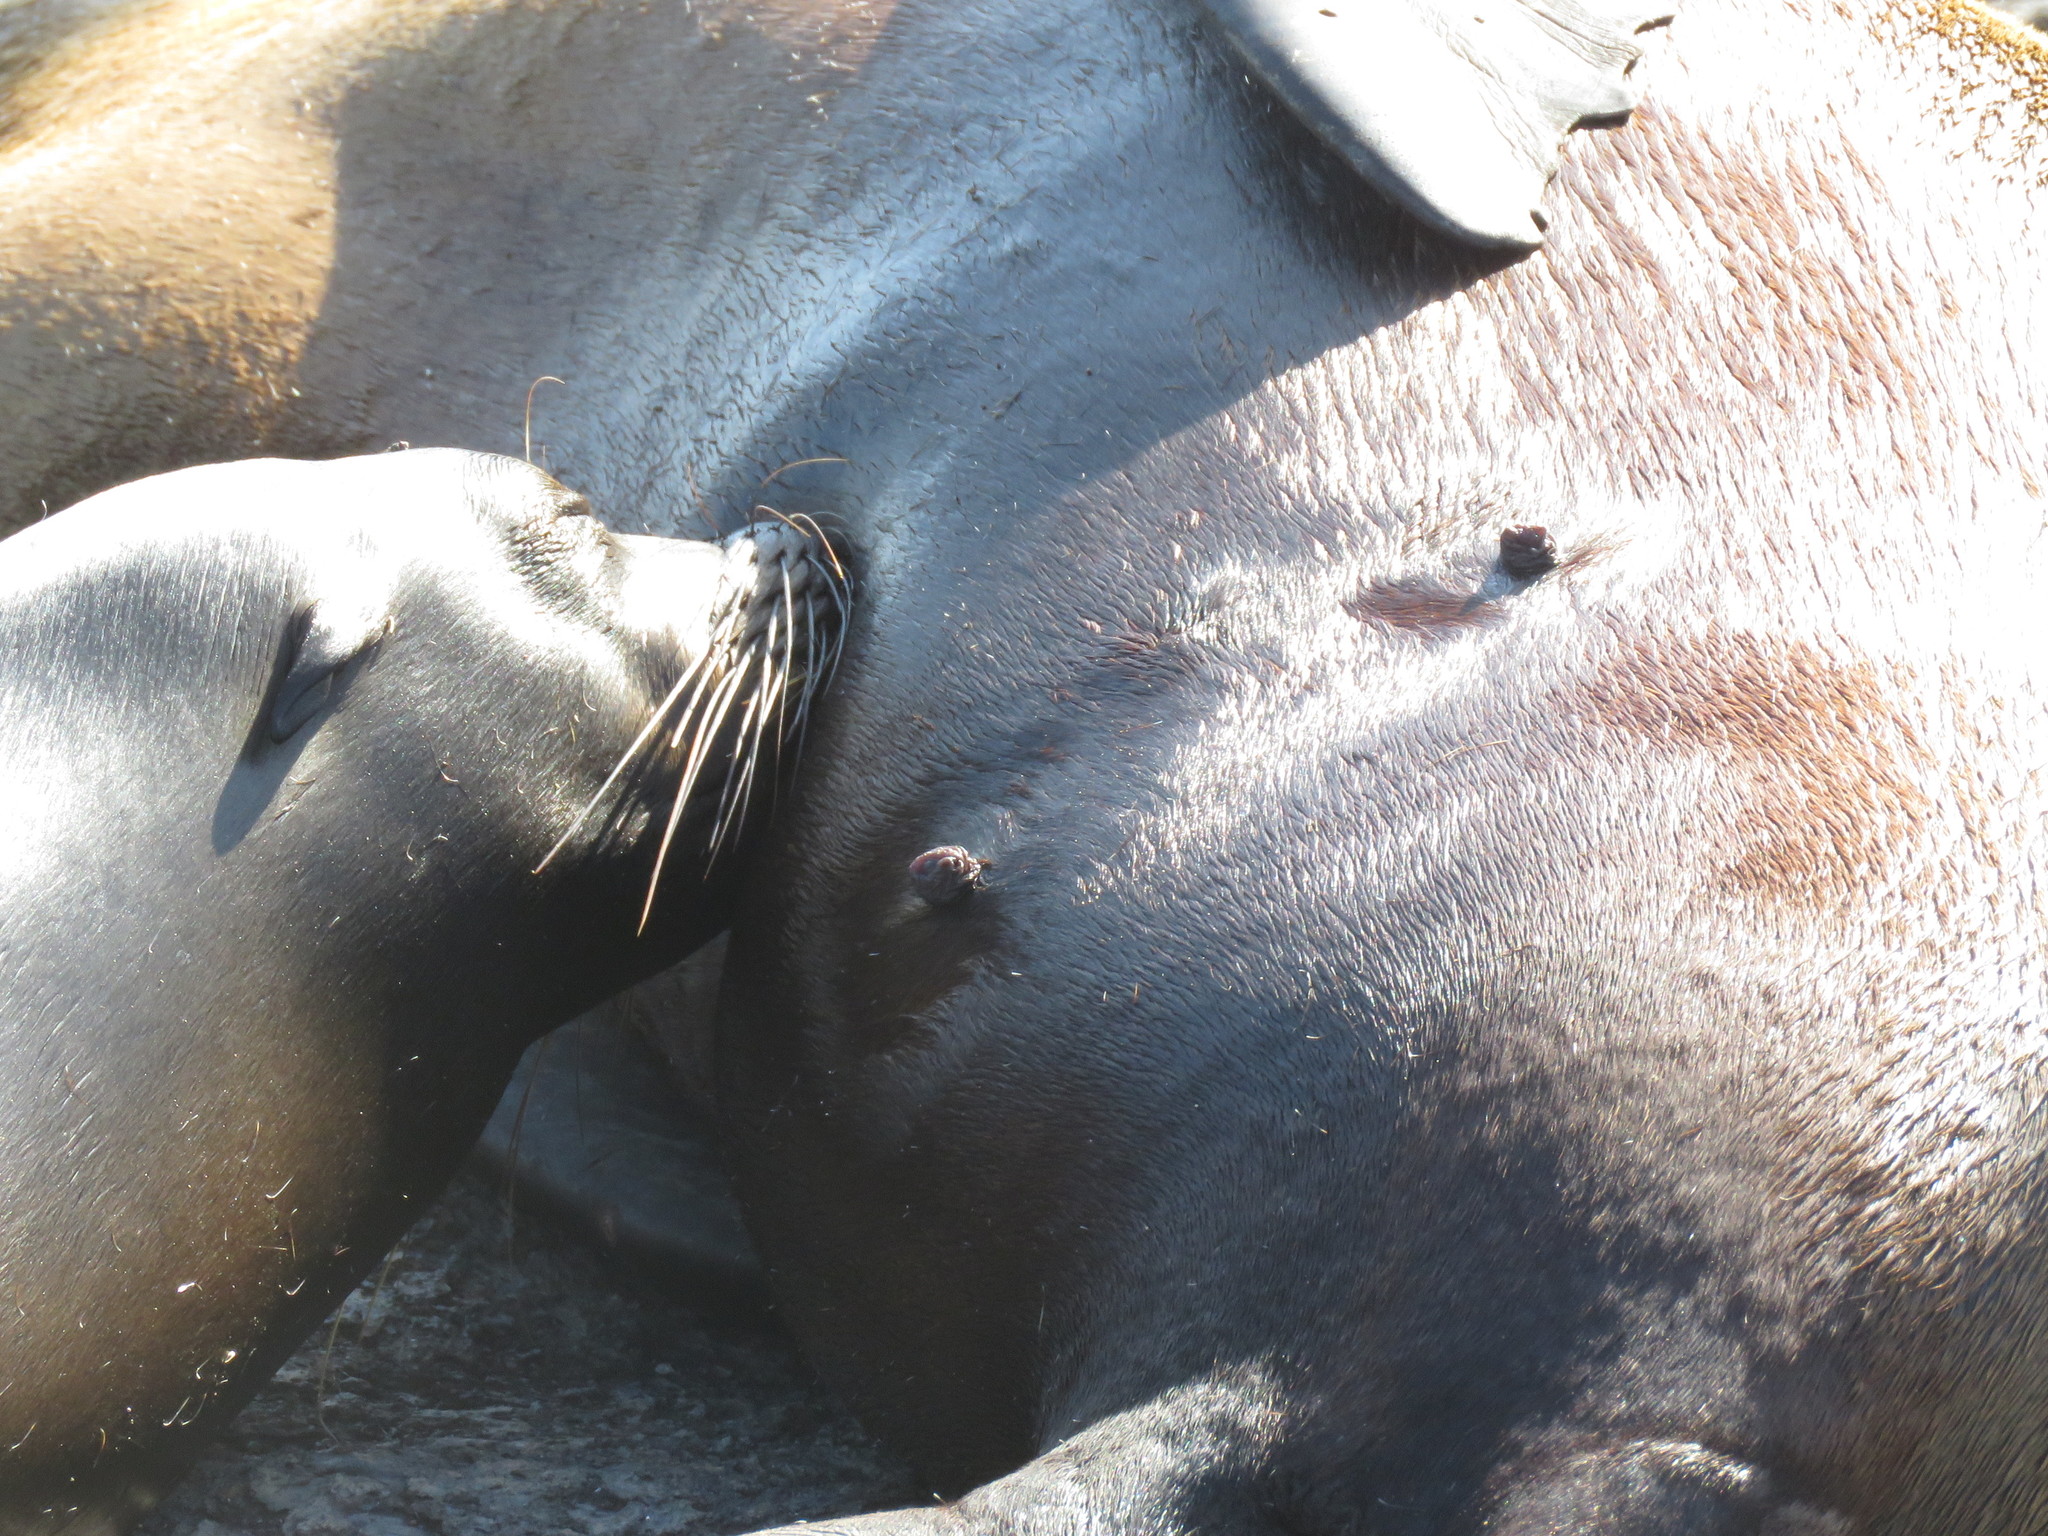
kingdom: Animalia
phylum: Chordata
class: Mammalia
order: Carnivora
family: Otariidae
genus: Zalophus
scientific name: Zalophus wollebaeki
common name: Galapagos sea lion
